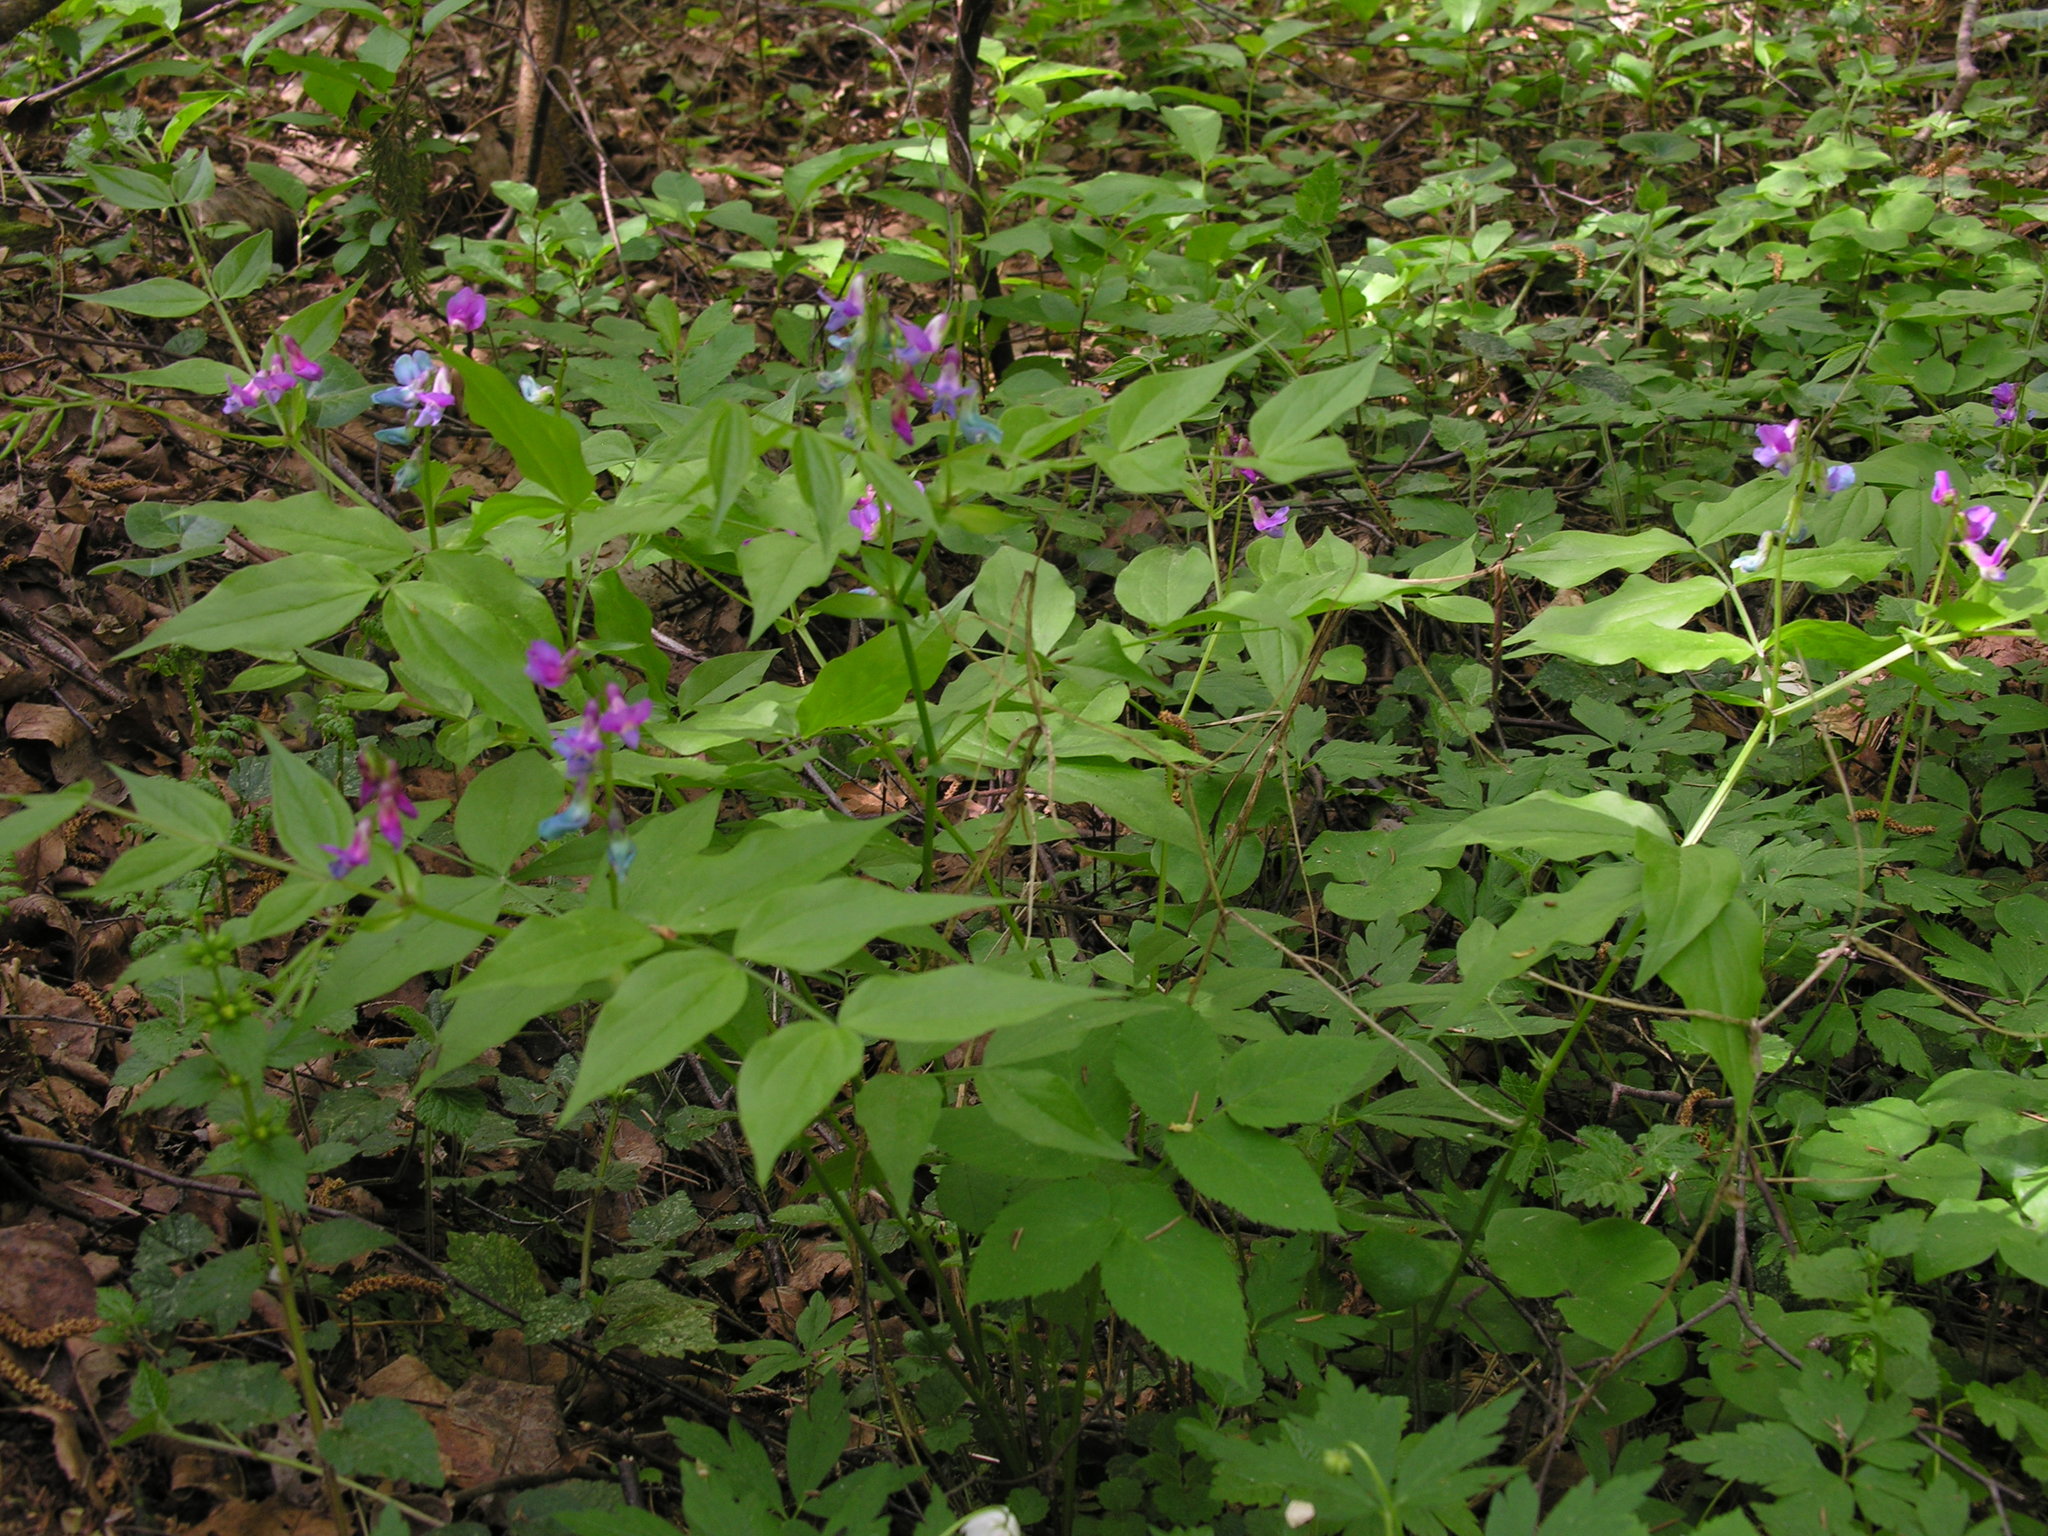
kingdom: Plantae
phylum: Tracheophyta
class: Magnoliopsida
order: Fabales
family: Fabaceae
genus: Lathyrus
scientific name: Lathyrus vernus
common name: Spring pea
